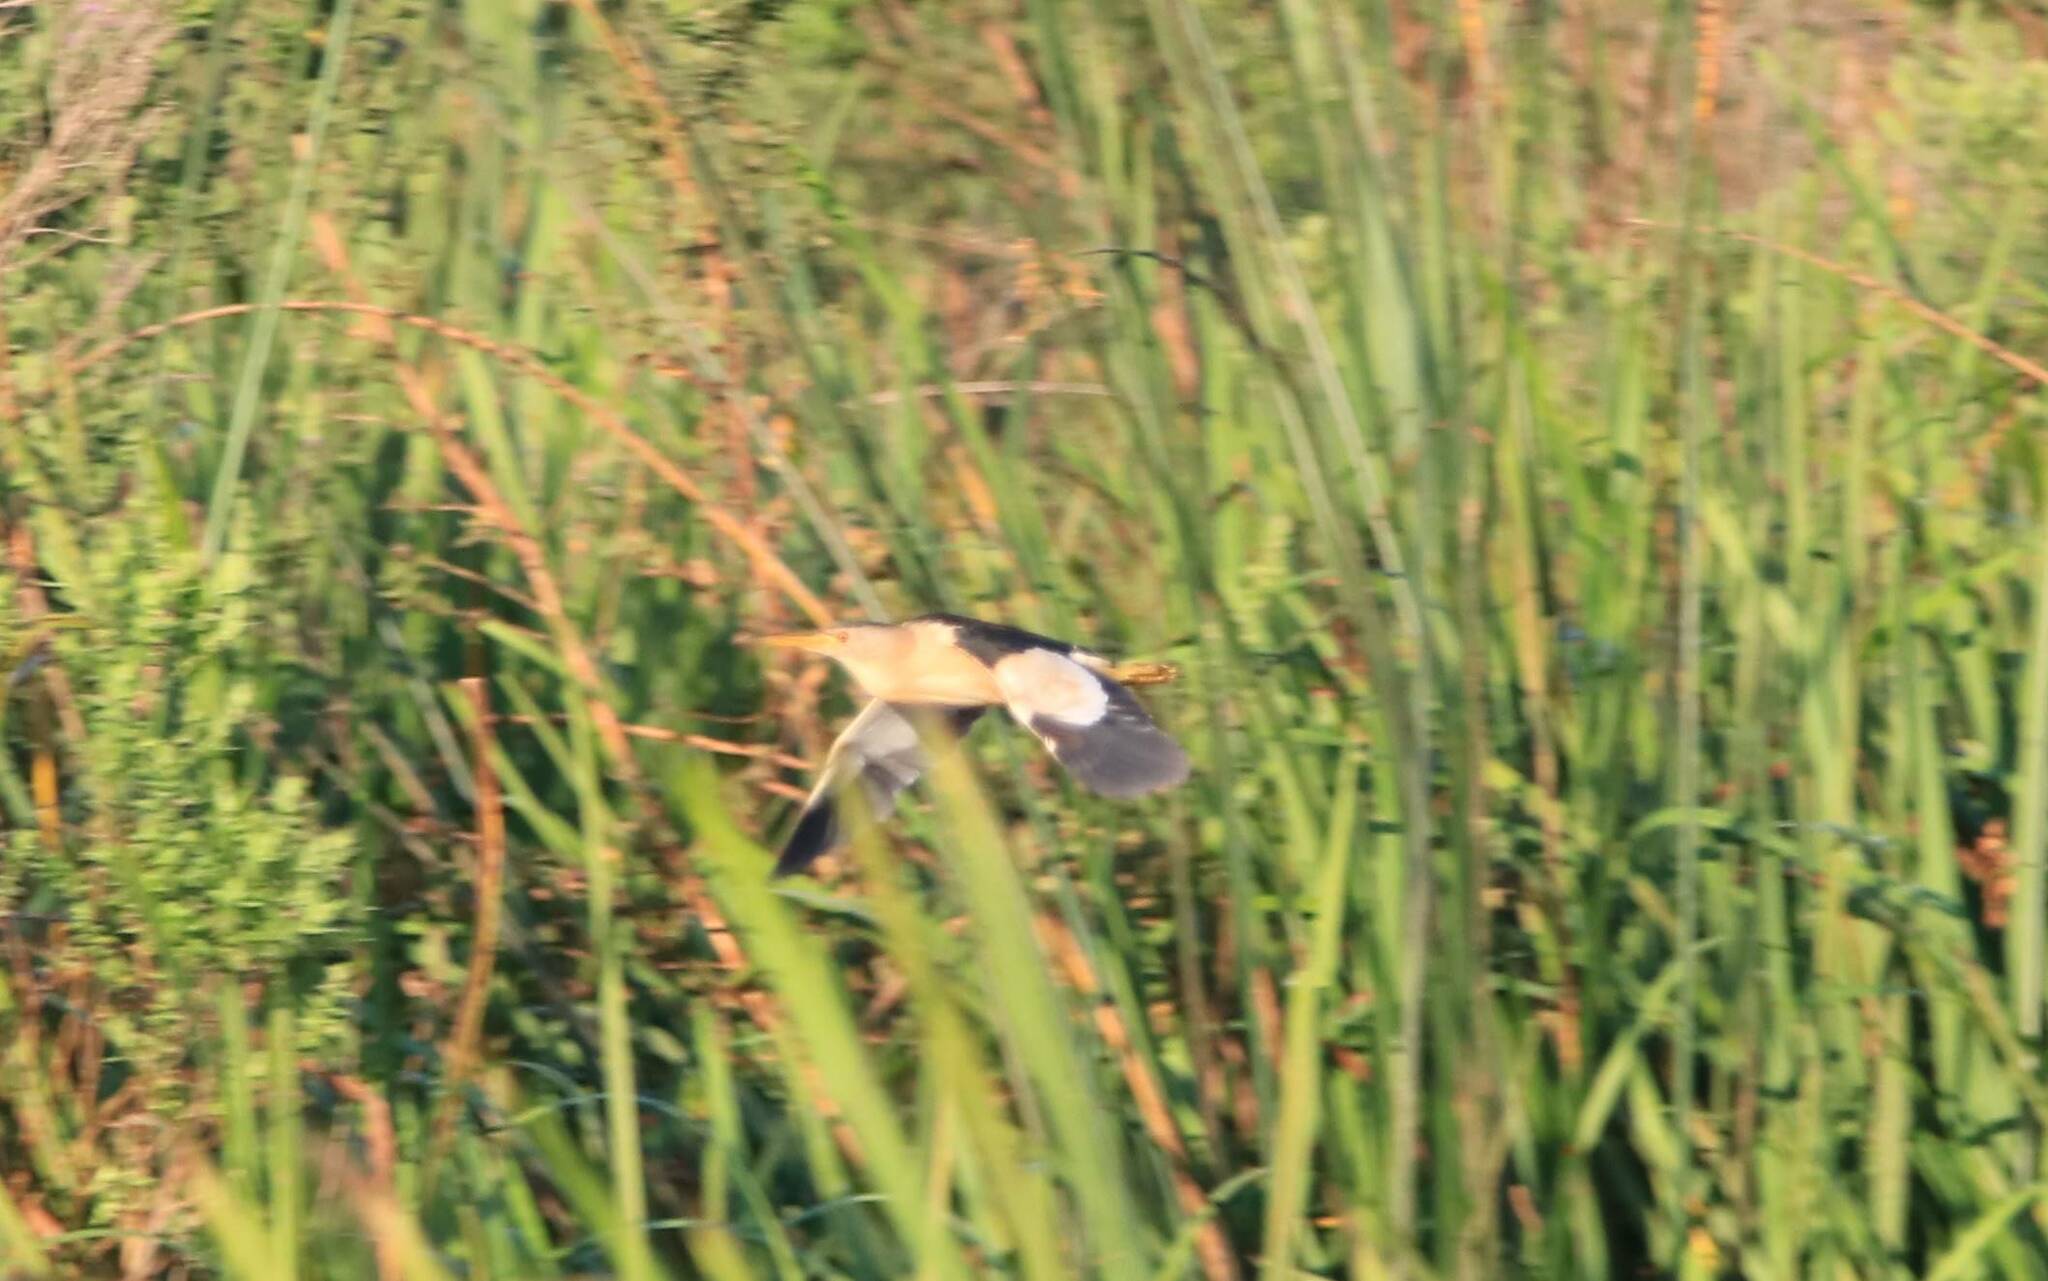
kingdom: Animalia
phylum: Chordata
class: Aves
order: Pelecaniformes
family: Ardeidae
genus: Ixobrychus
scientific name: Ixobrychus minutus
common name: Little bittern
